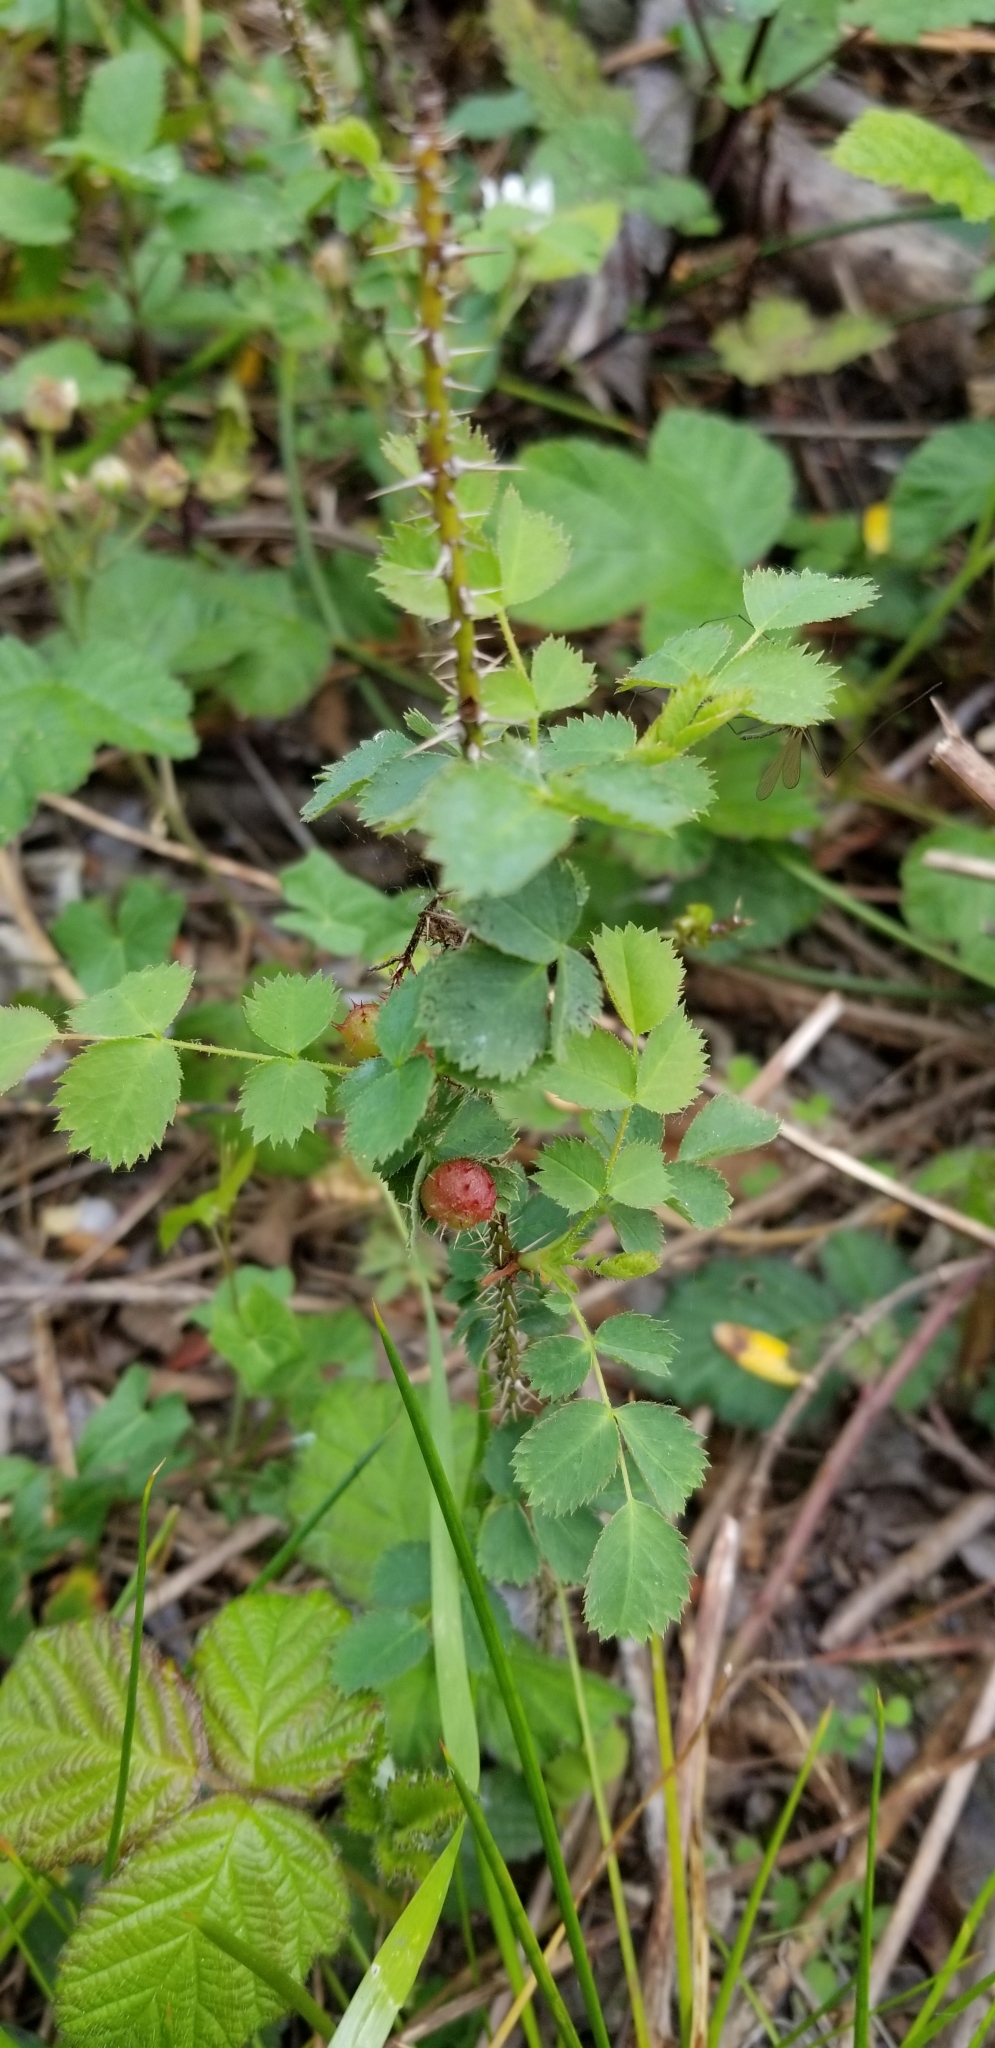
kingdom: Plantae
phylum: Tracheophyta
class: Magnoliopsida
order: Rosales
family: Rosaceae
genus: Rosa
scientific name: Rosa californica
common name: California rose
